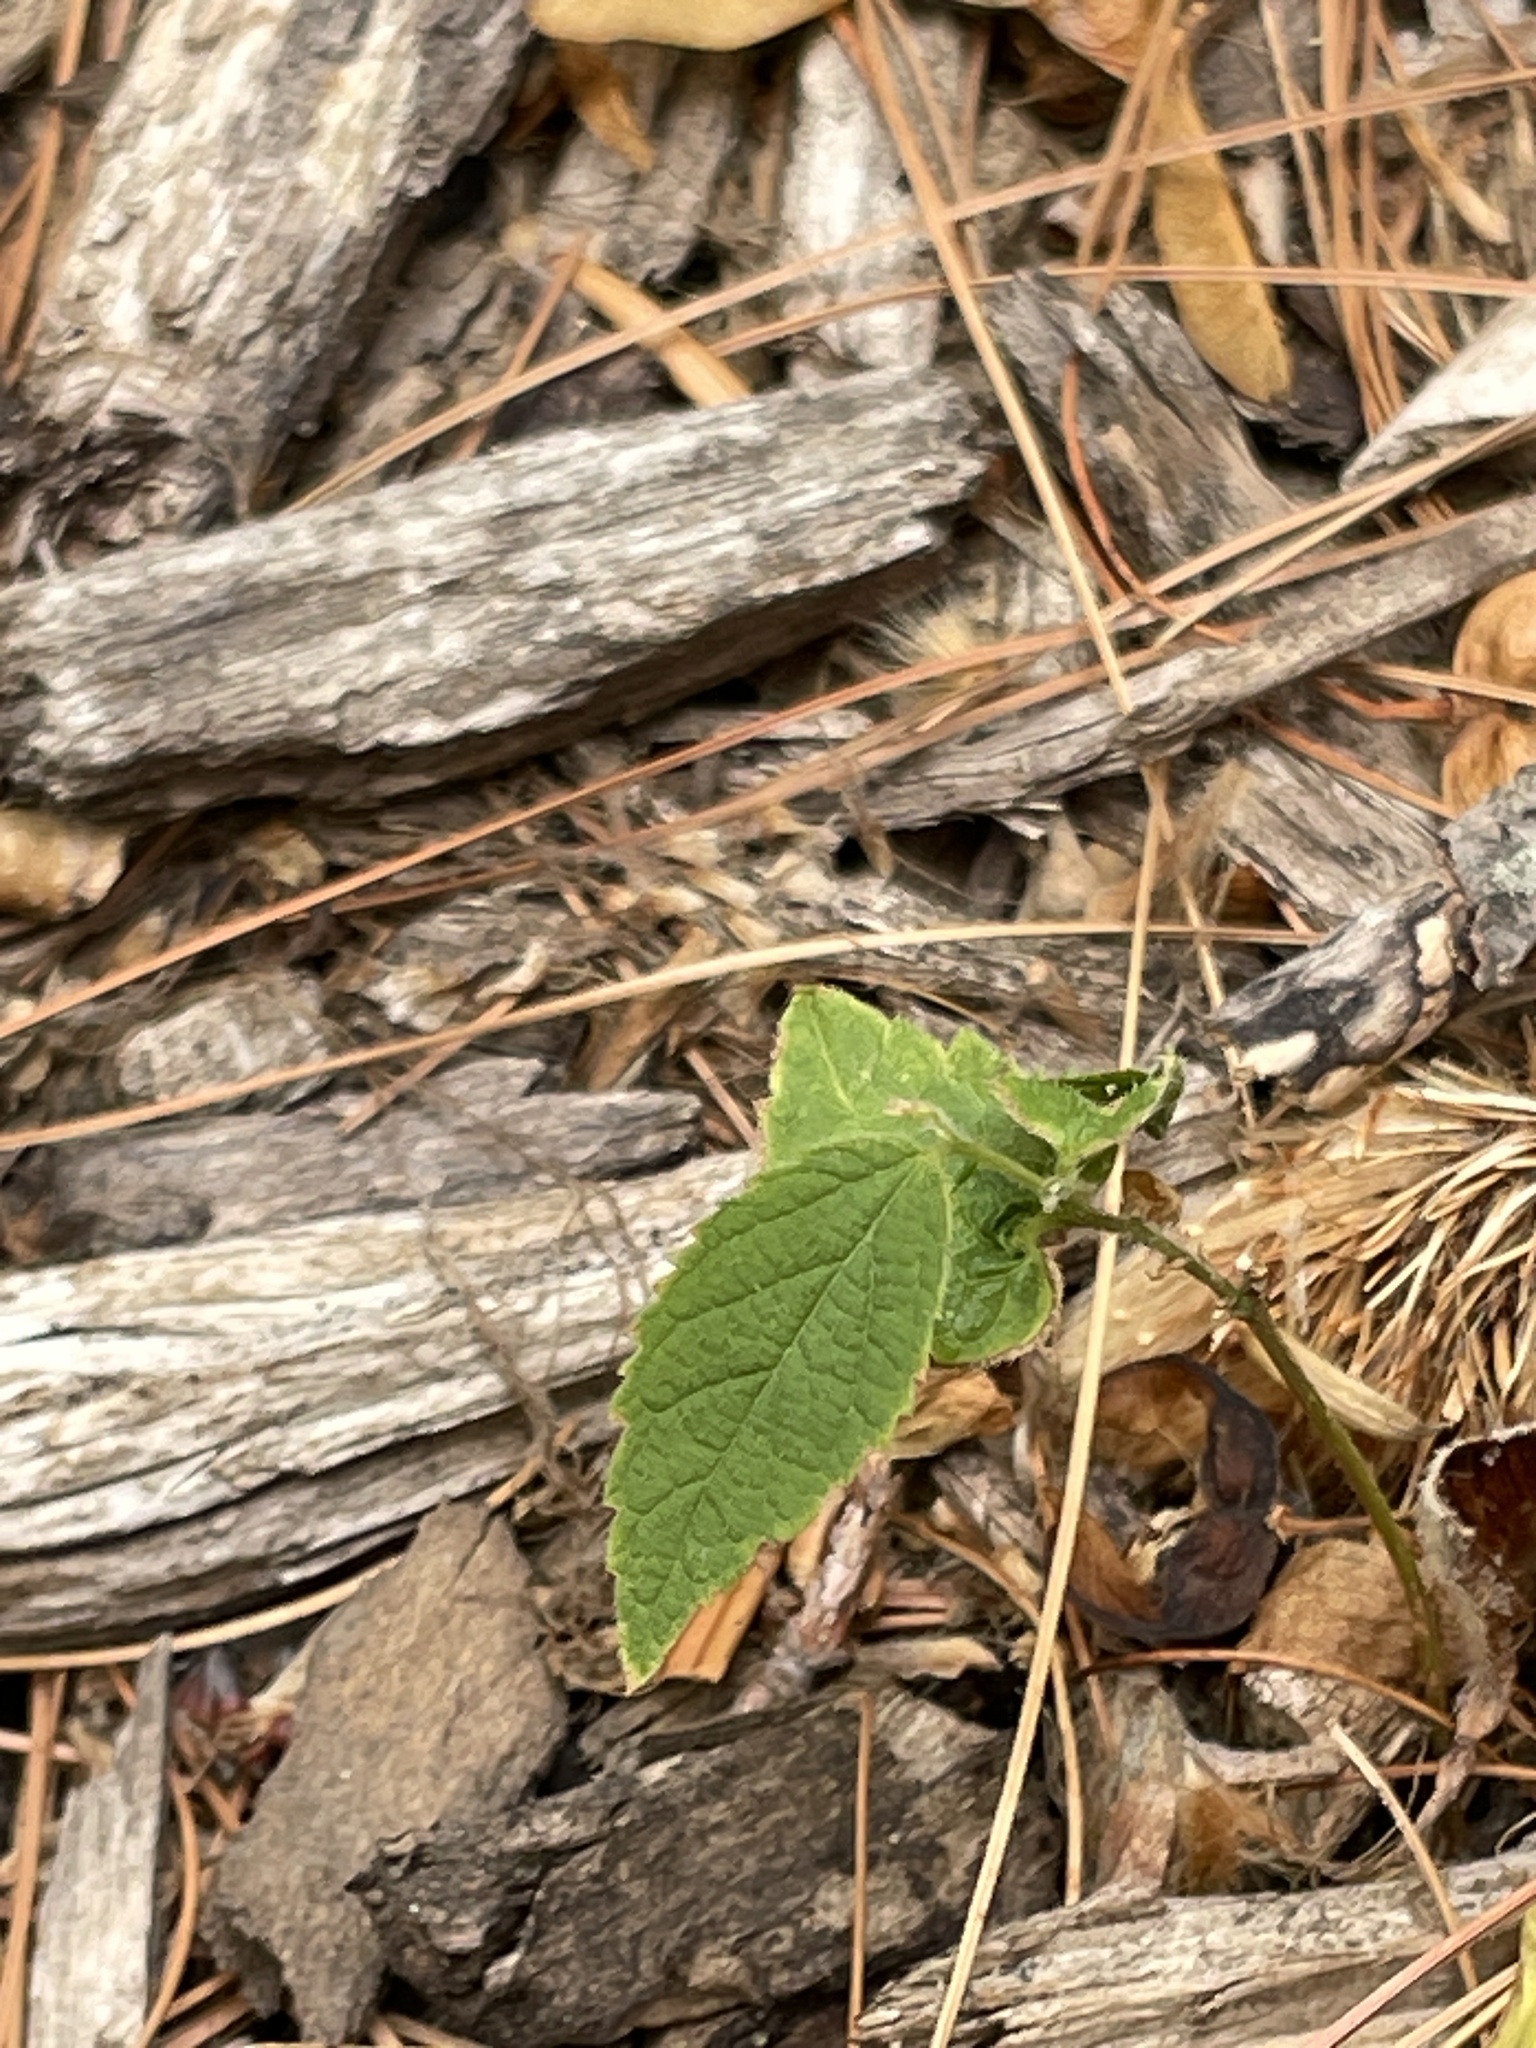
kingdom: Plantae
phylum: Tracheophyta
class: Magnoliopsida
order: Rosales
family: Cannabaceae
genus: Celtis
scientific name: Celtis occidentalis
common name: Common hackberry
